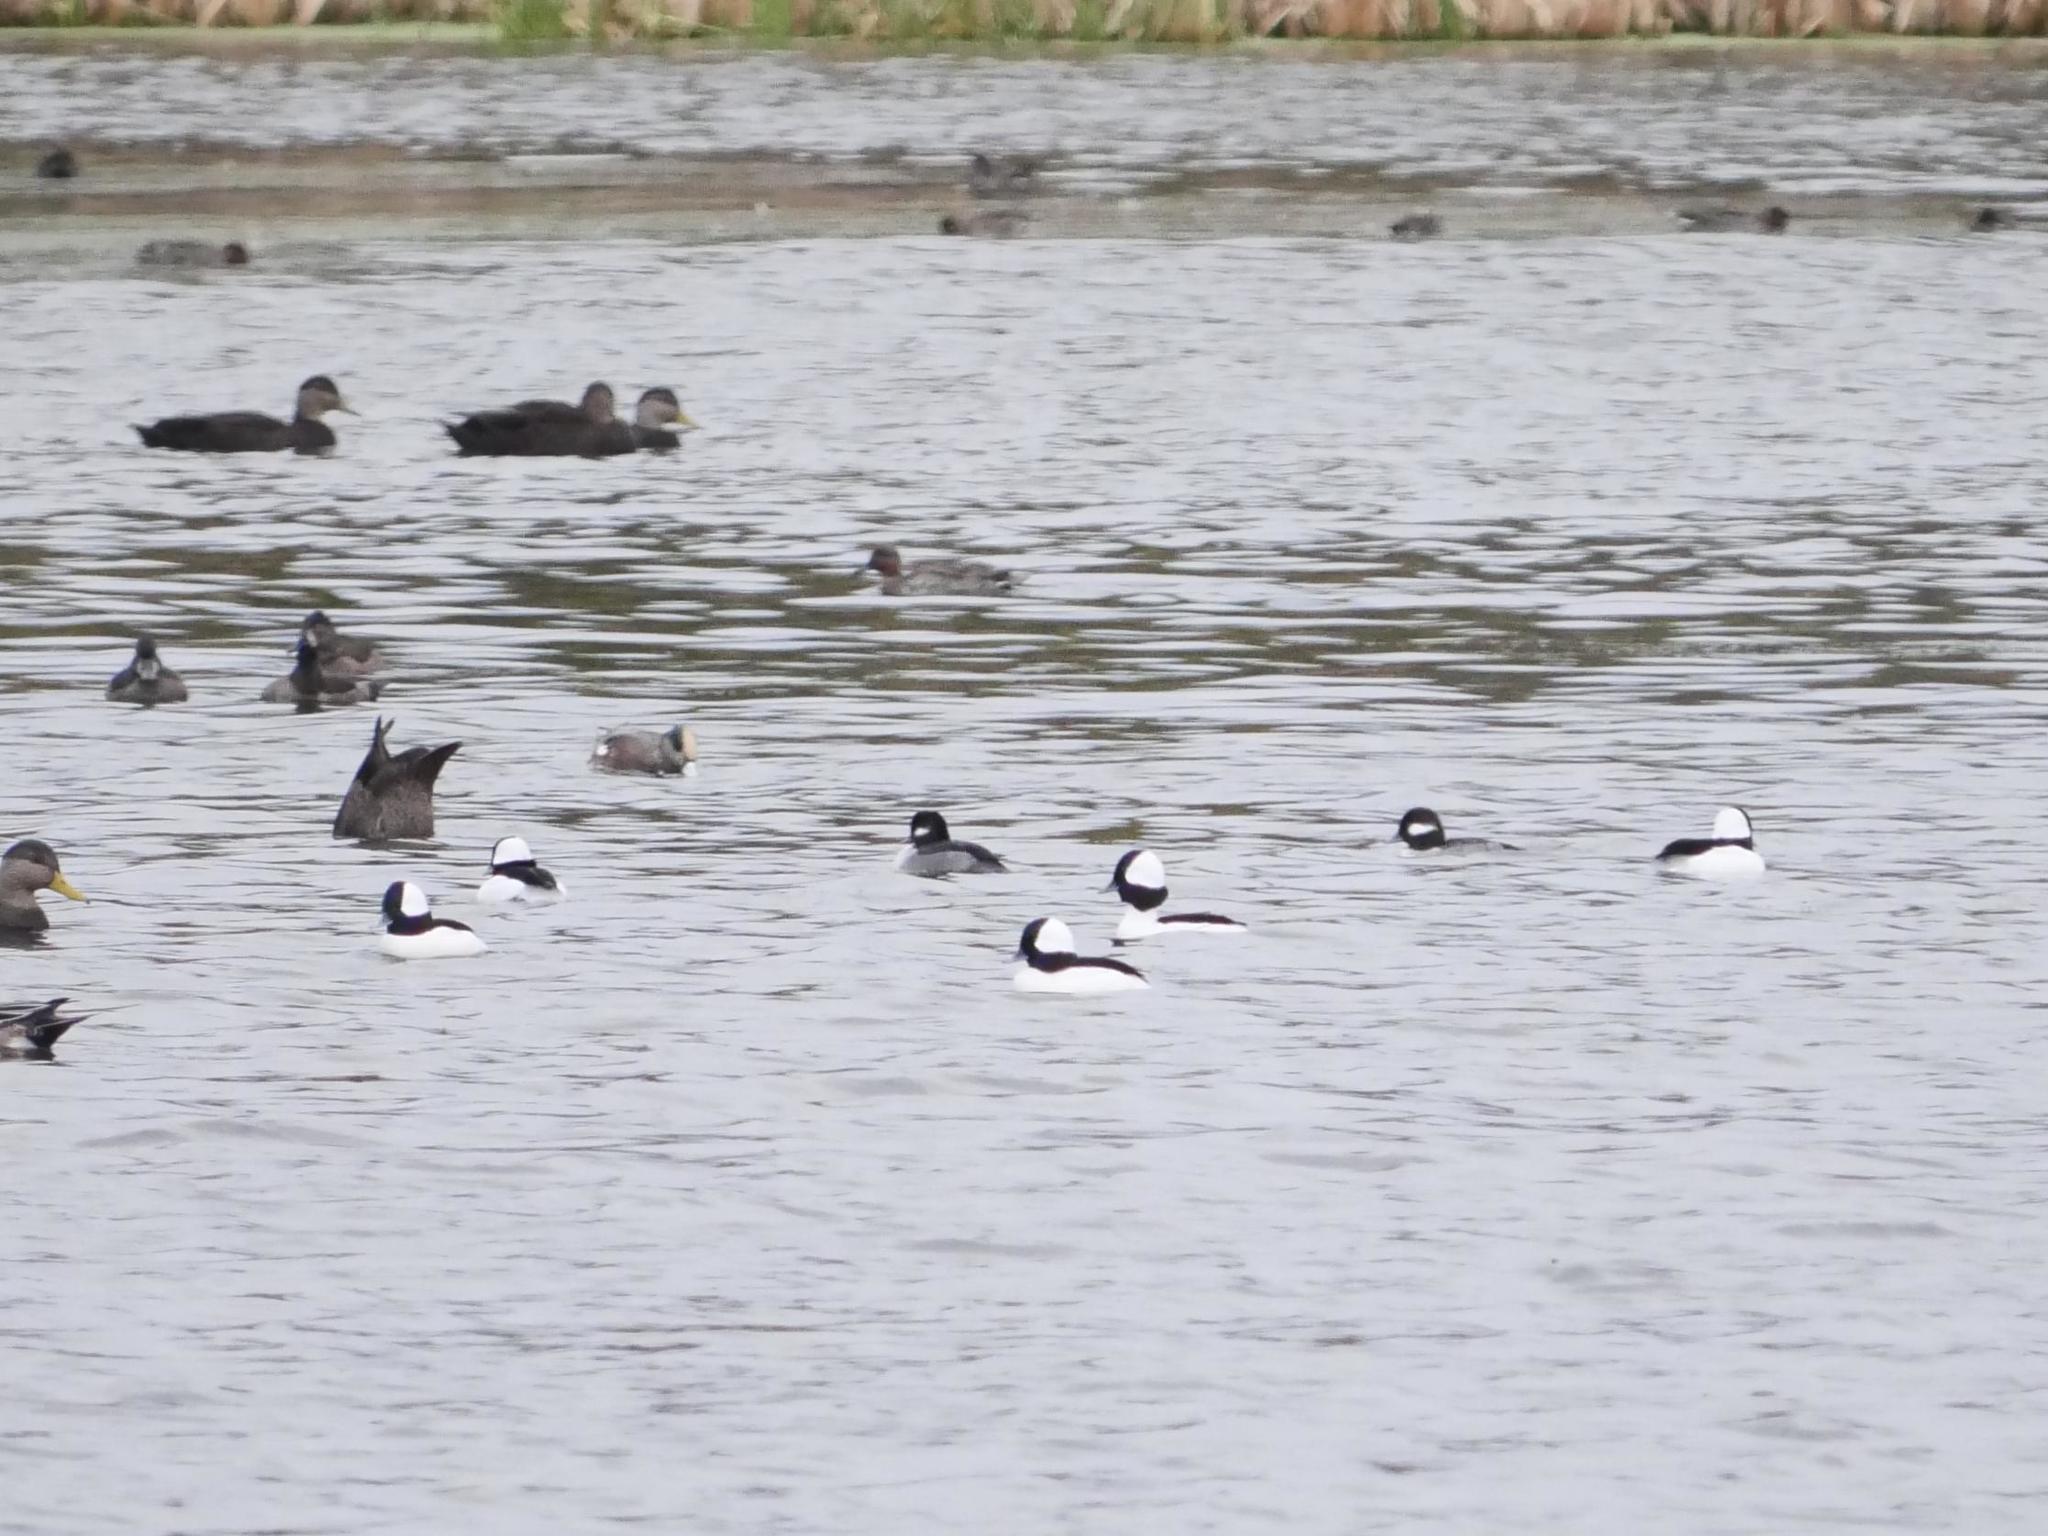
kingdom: Animalia
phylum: Chordata
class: Aves
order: Anseriformes
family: Anatidae
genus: Bucephala
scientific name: Bucephala albeola
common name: Bufflehead
